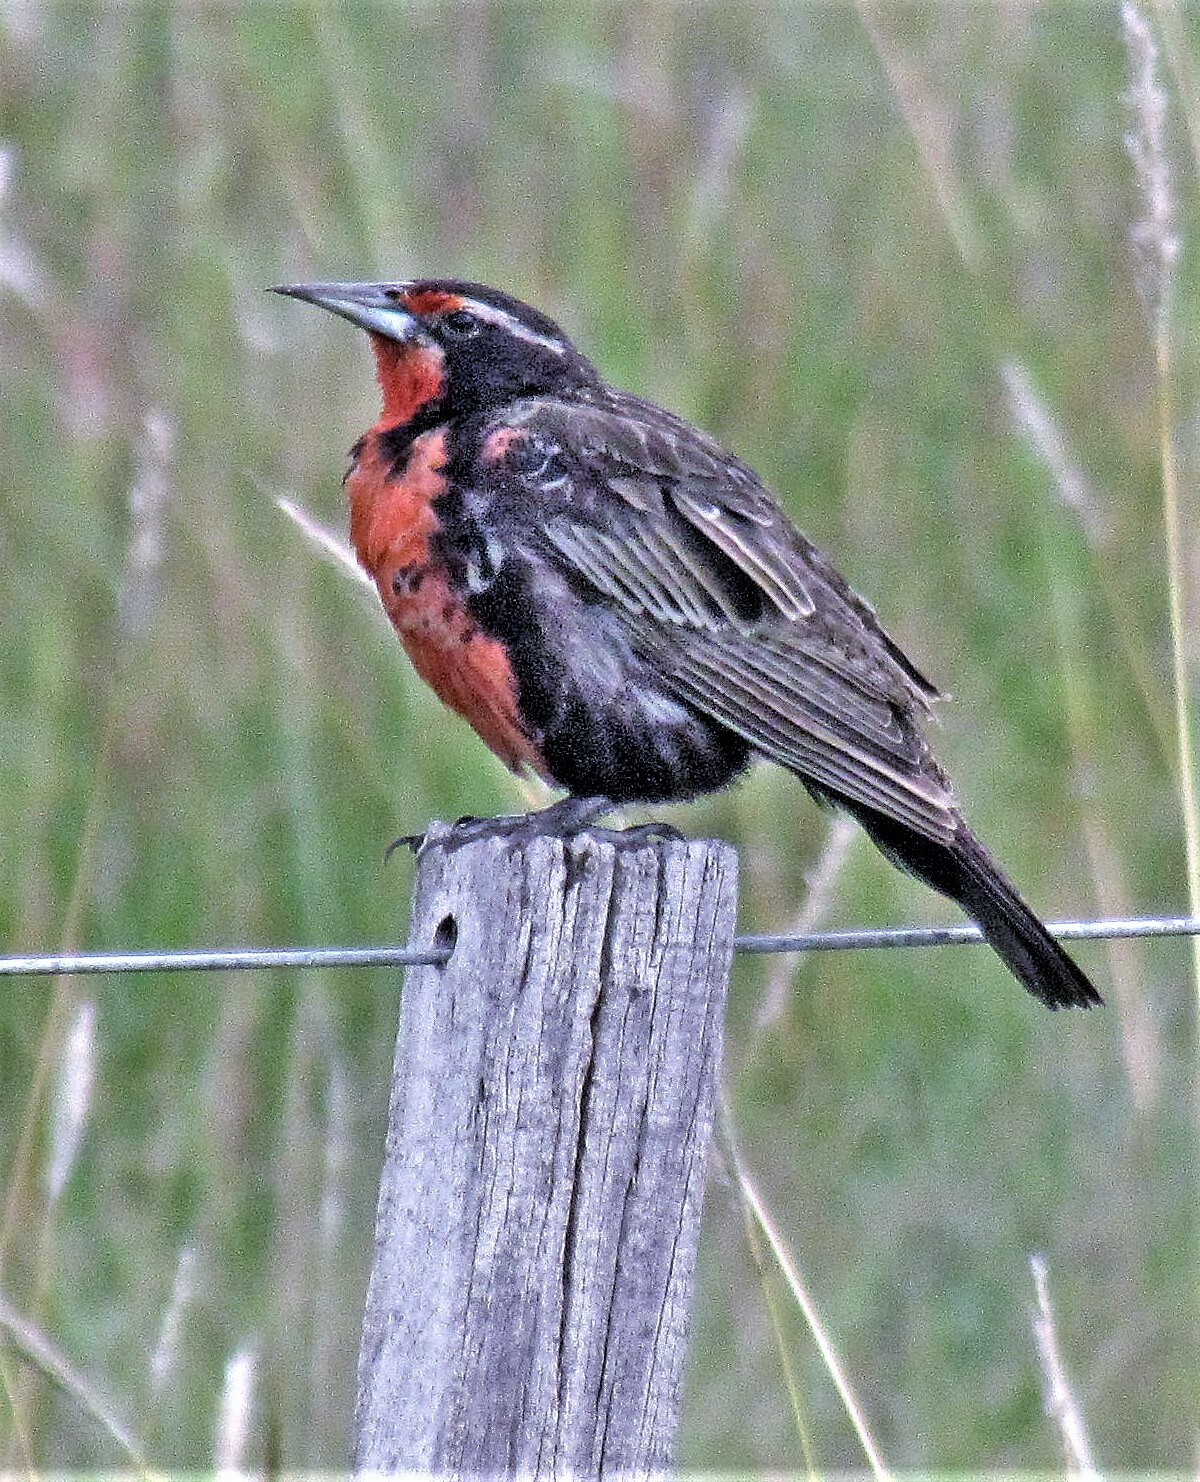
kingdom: Animalia
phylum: Chordata
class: Aves
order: Passeriformes
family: Icteridae
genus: Sturnella
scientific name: Sturnella loyca
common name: Long-tailed meadowlark
